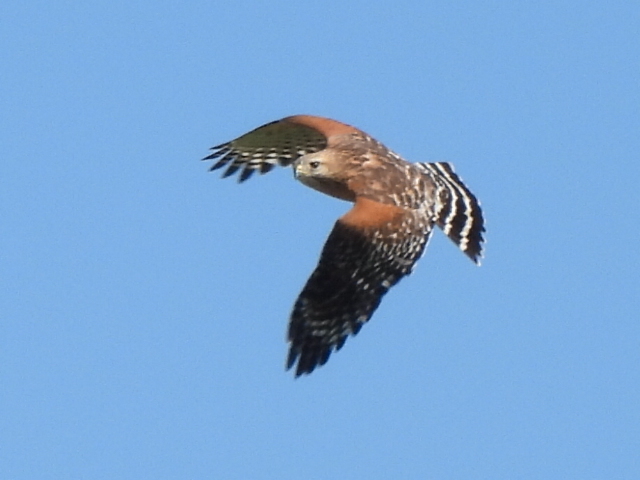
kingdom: Animalia
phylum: Chordata
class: Aves
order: Accipitriformes
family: Accipitridae
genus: Buteo
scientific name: Buteo lineatus
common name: Red-shouldered hawk
